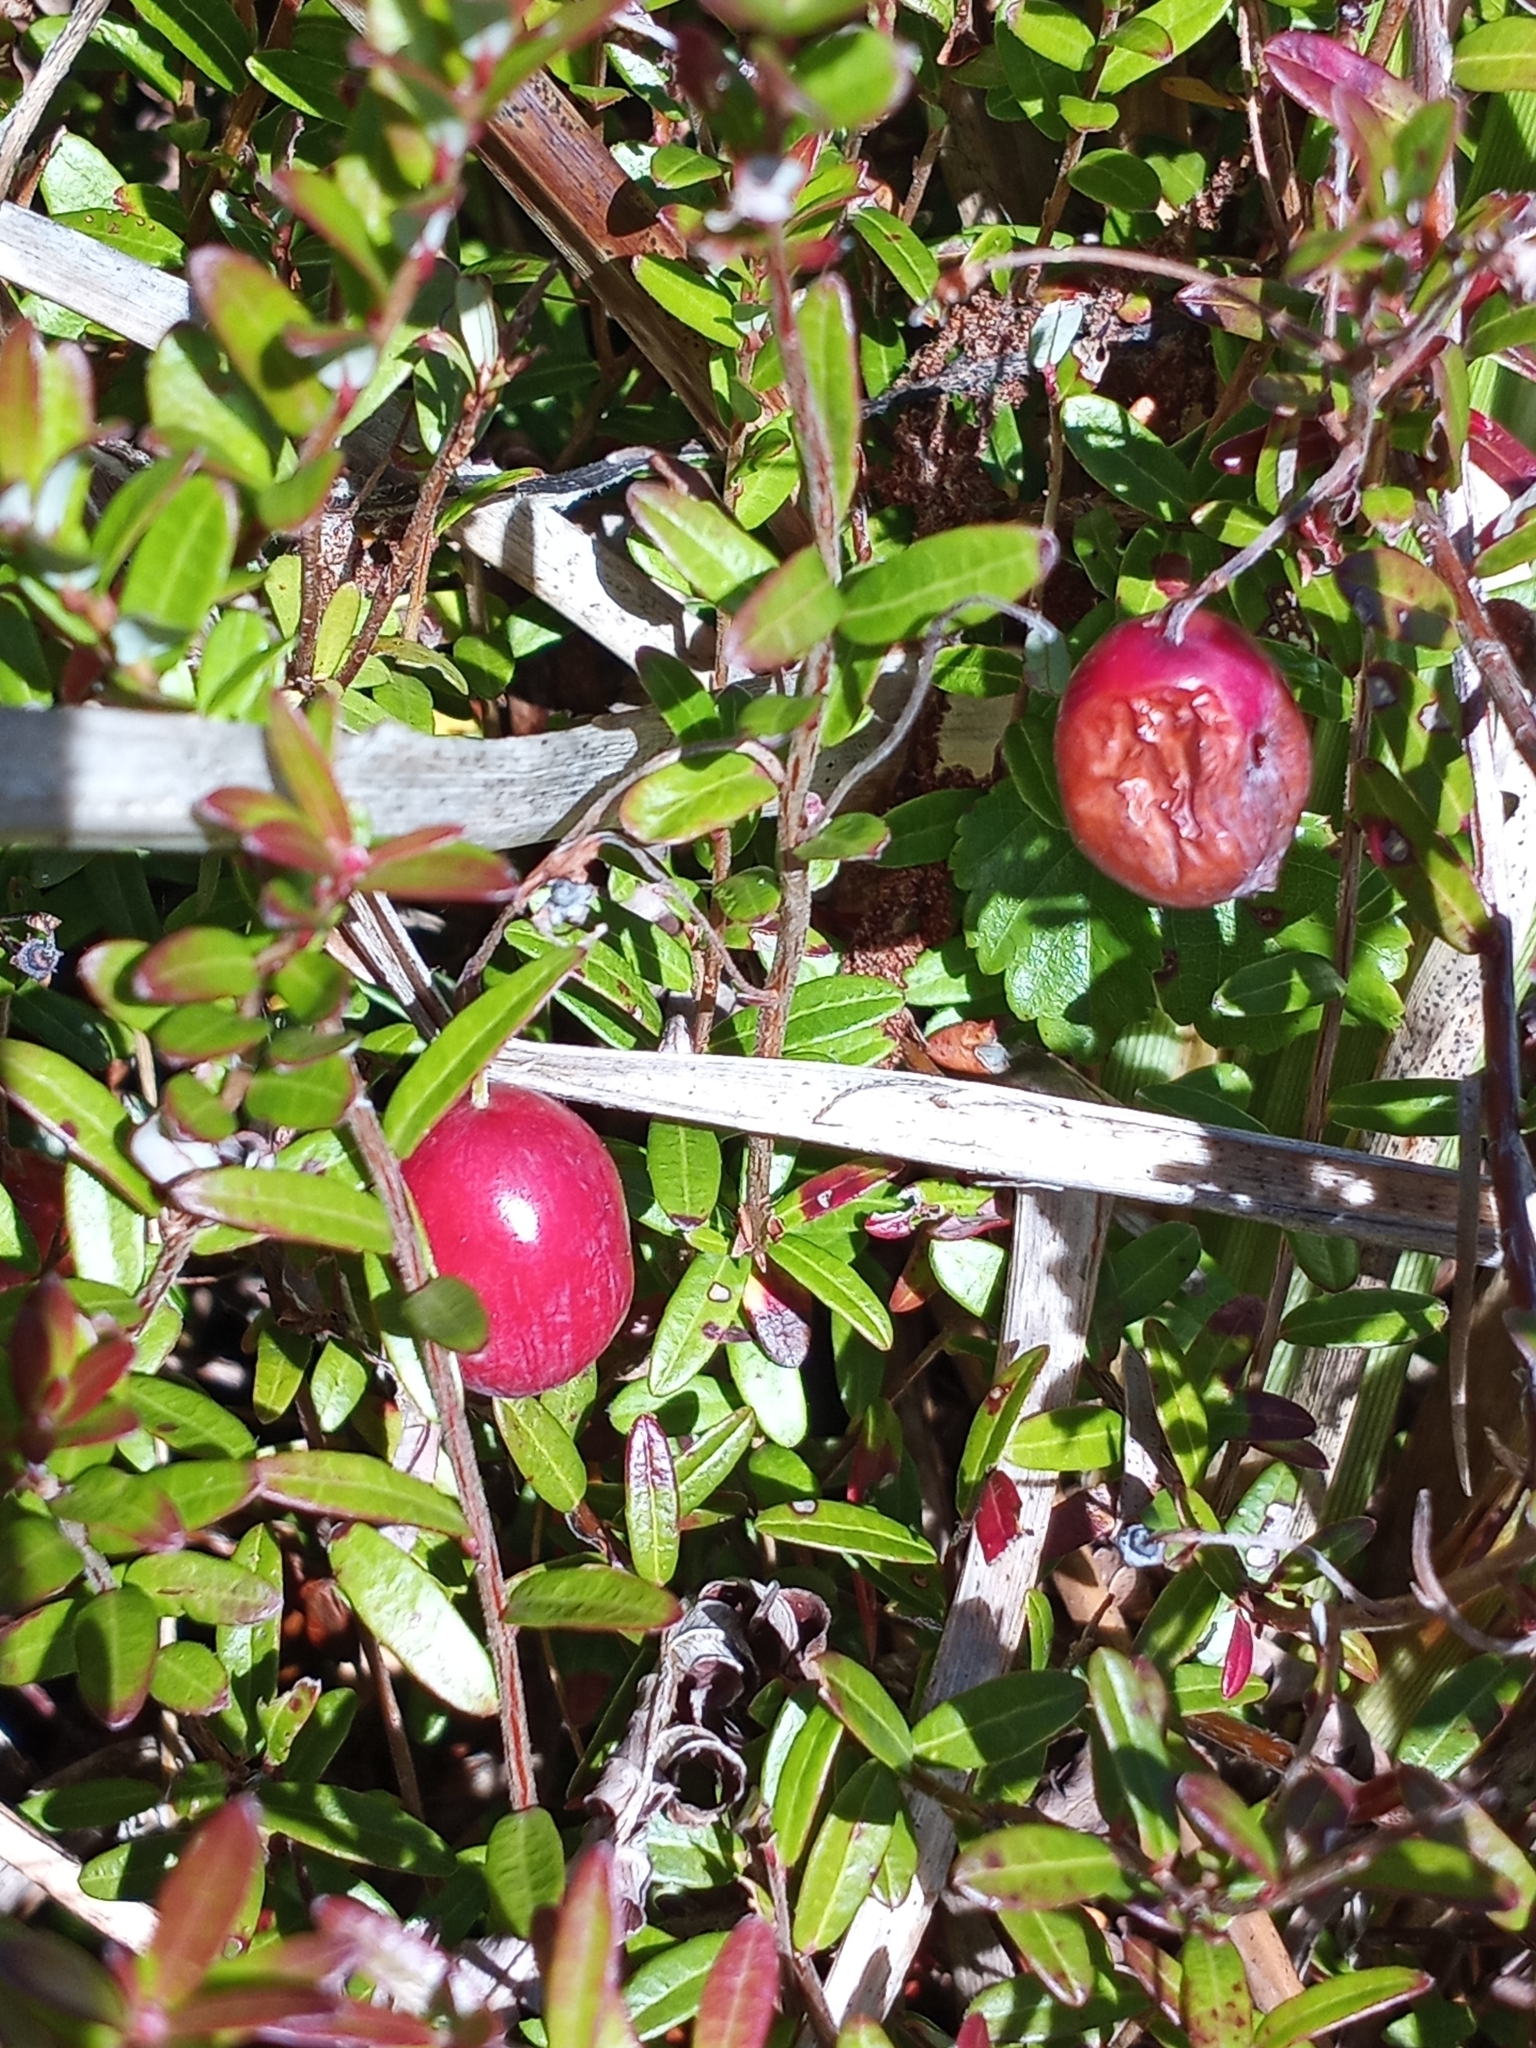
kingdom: Plantae
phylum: Tracheophyta
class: Magnoliopsida
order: Ericales
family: Ericaceae
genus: Vaccinium
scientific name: Vaccinium macrocarpon
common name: American cranberry
